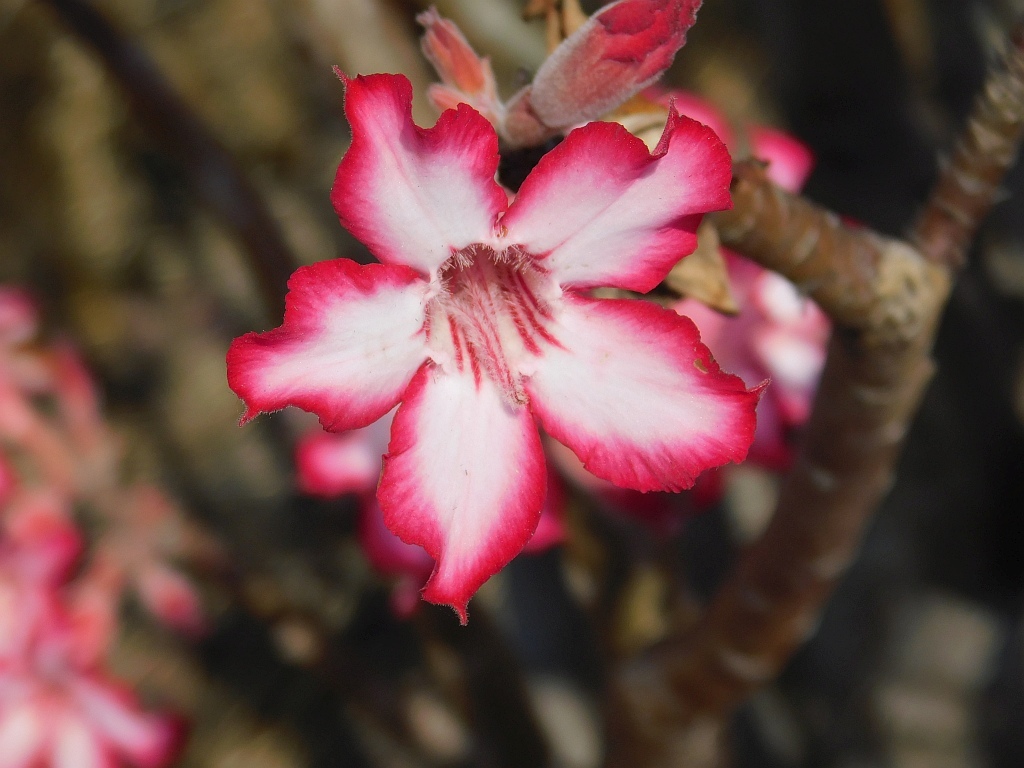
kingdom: Plantae
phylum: Tracheophyta
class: Magnoliopsida
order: Gentianales
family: Apocynaceae
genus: Adenium
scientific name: Adenium obesum
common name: Desert-rose
